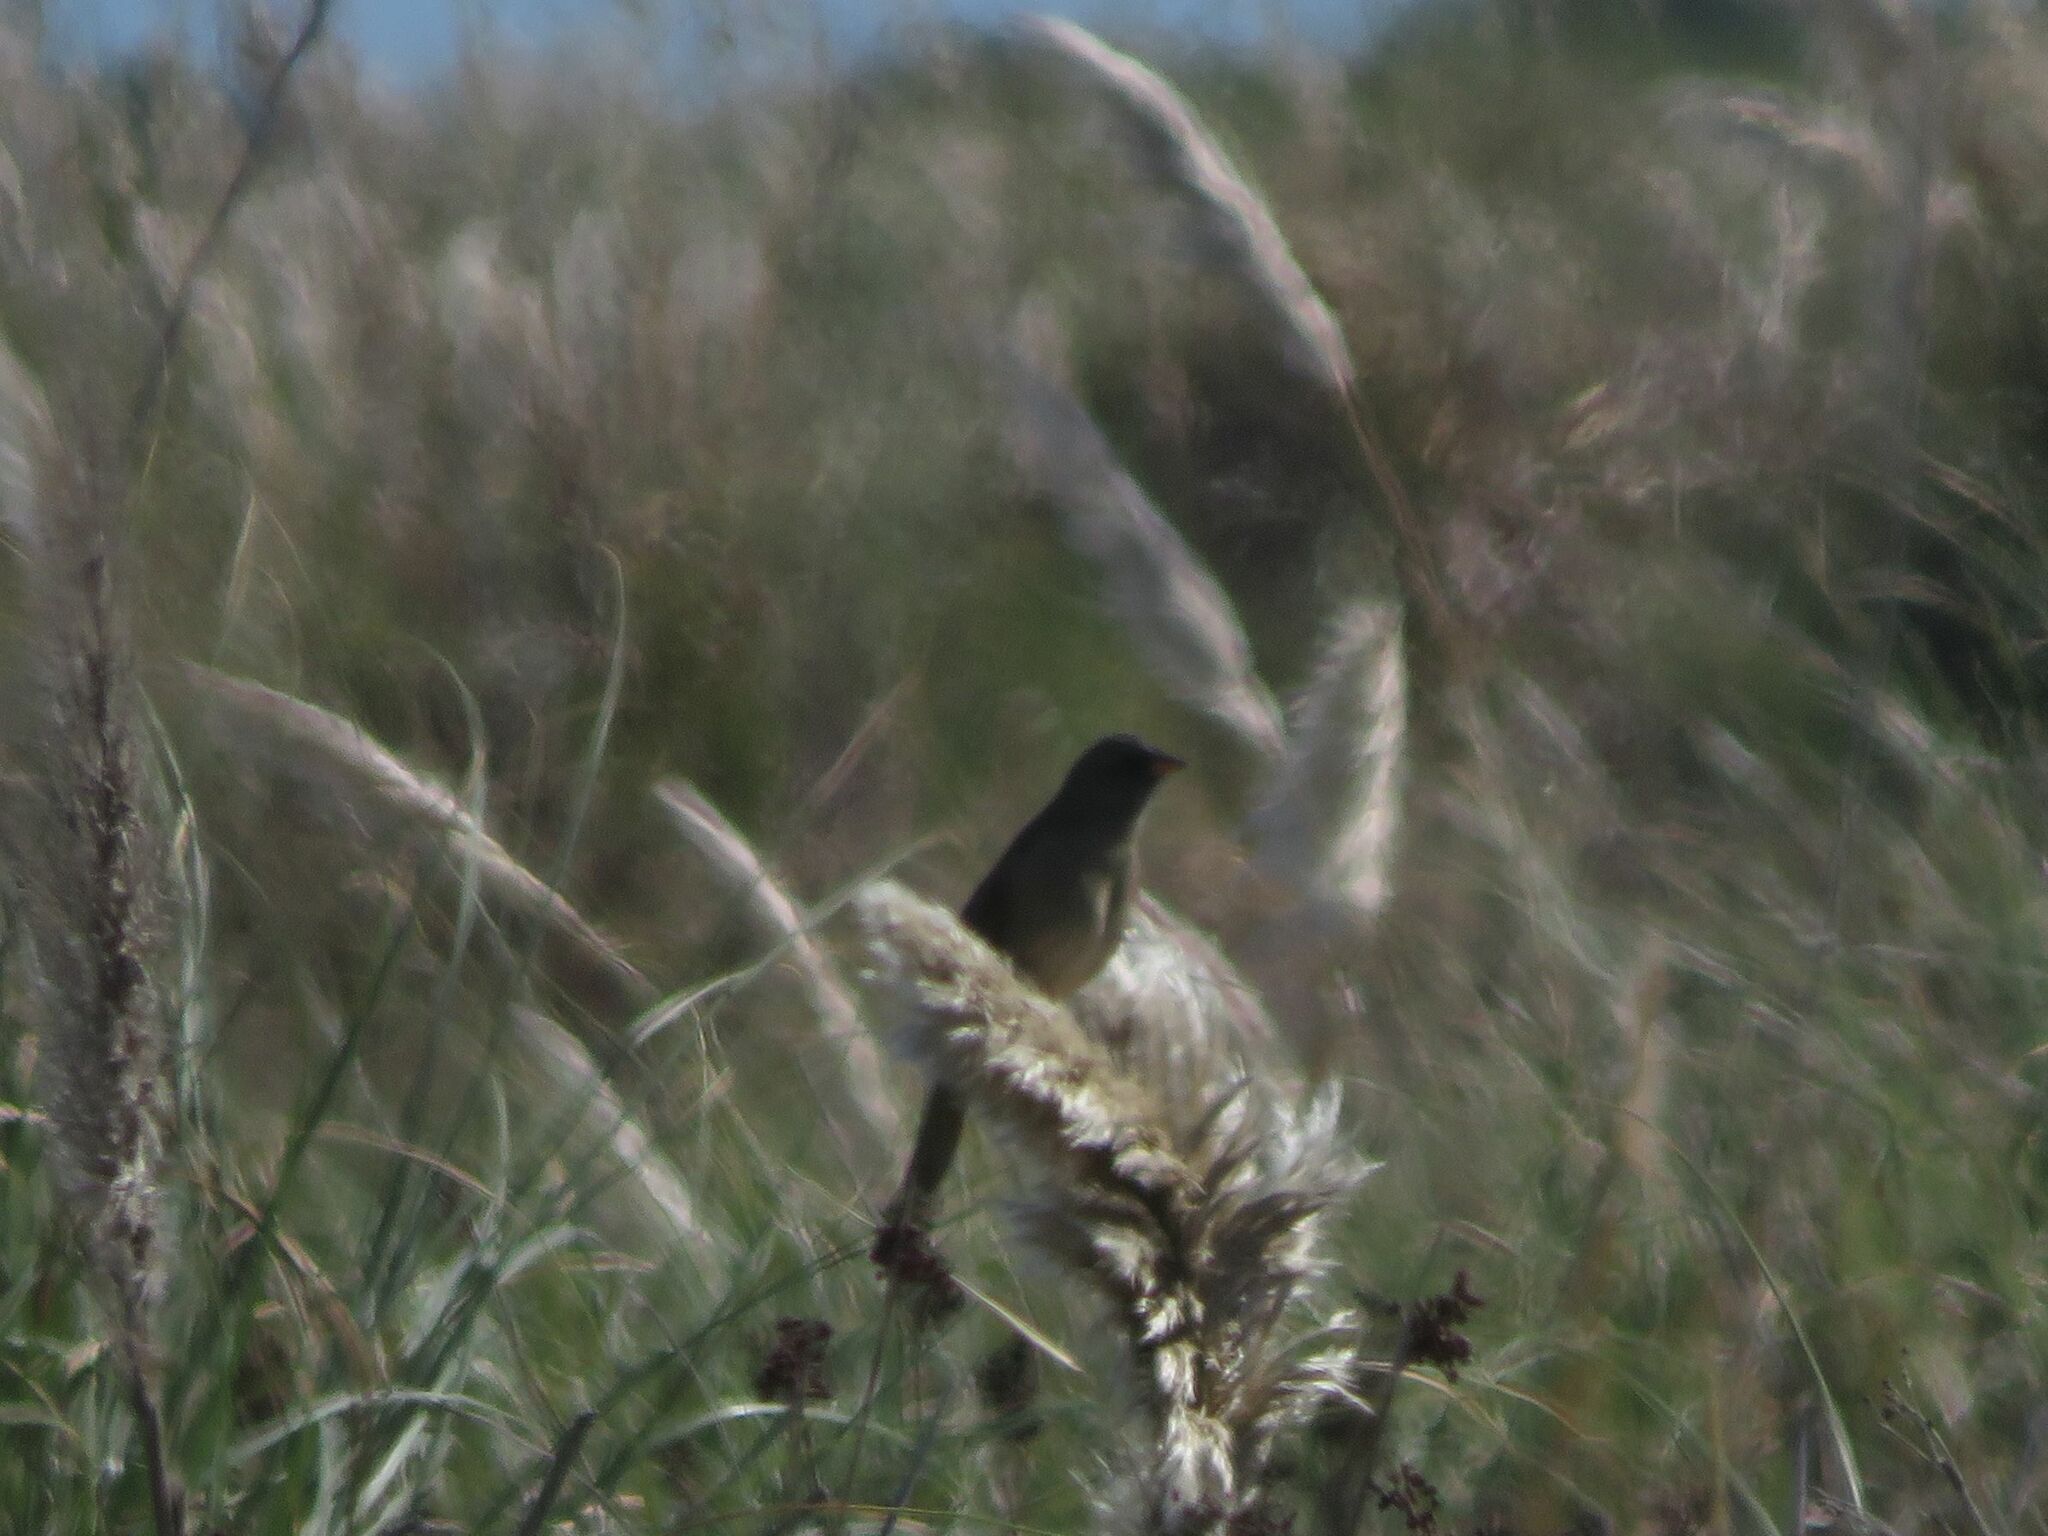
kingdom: Animalia
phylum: Chordata
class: Aves
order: Passeriformes
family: Thraupidae
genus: Embernagra
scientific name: Embernagra platensis
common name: Pampa finch
